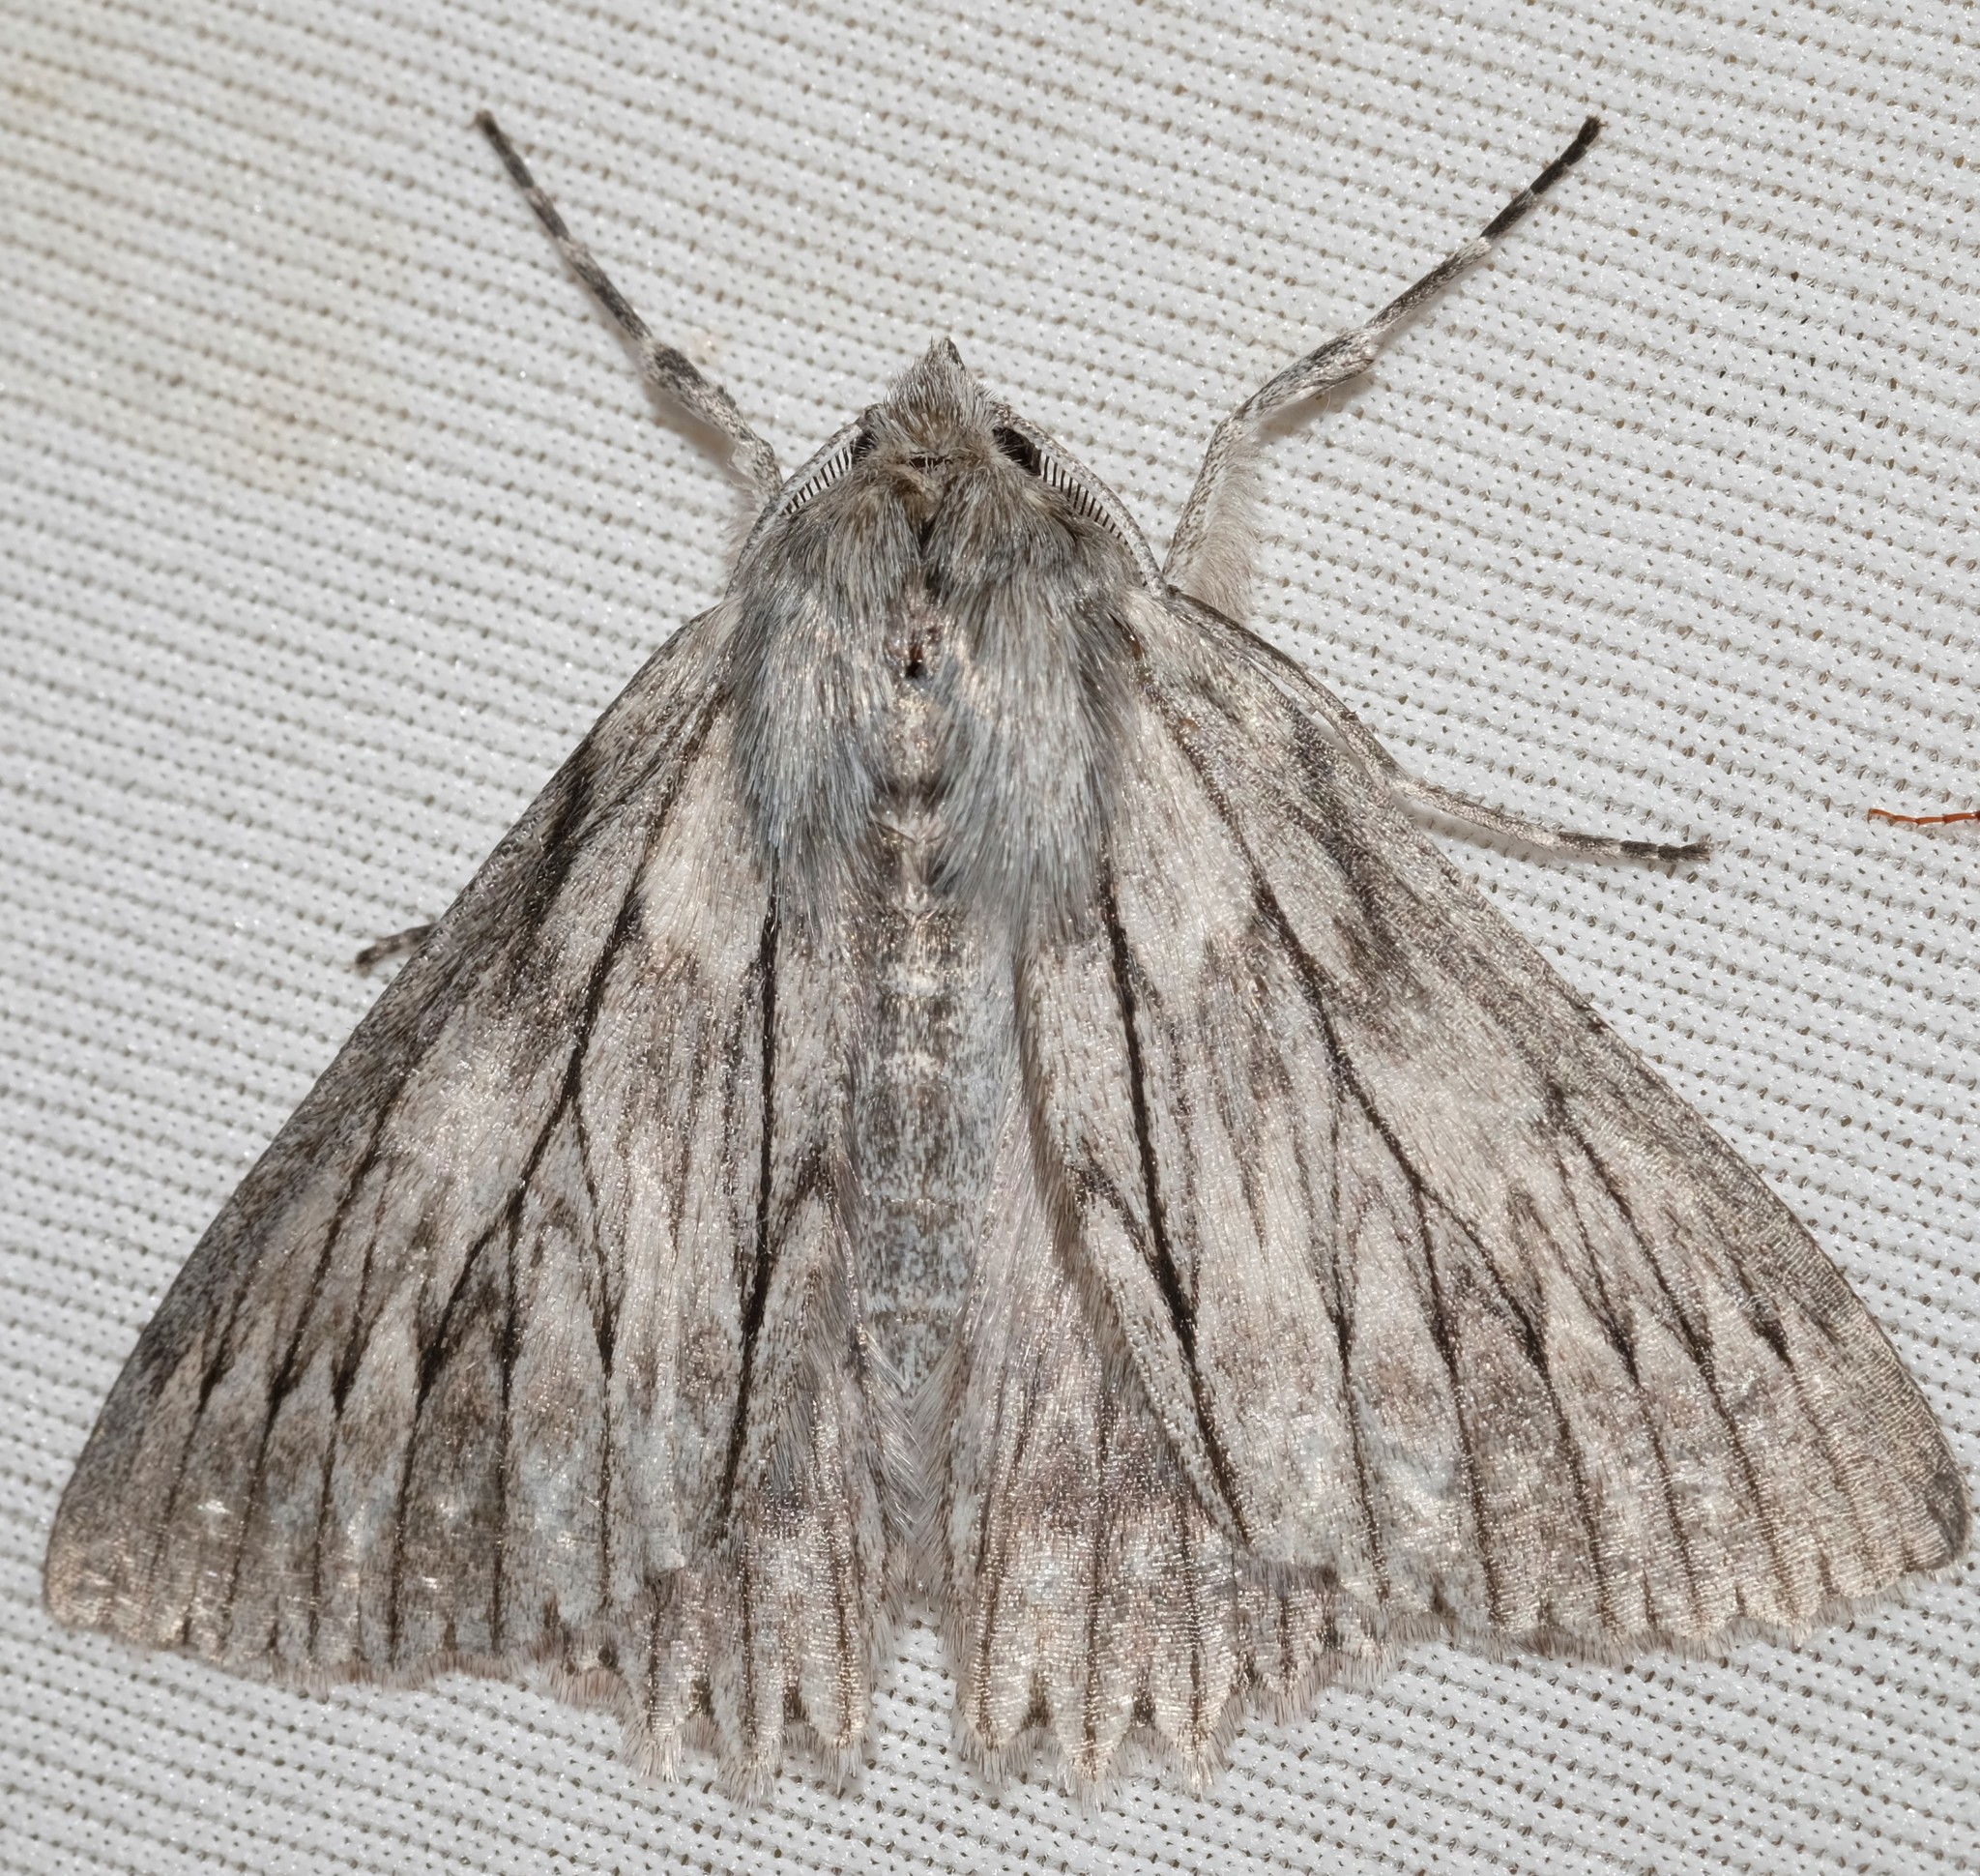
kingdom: Animalia
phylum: Arthropoda
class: Insecta
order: Lepidoptera
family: Geometridae
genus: Cyneoterpna
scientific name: Cyneoterpna wilsoni
